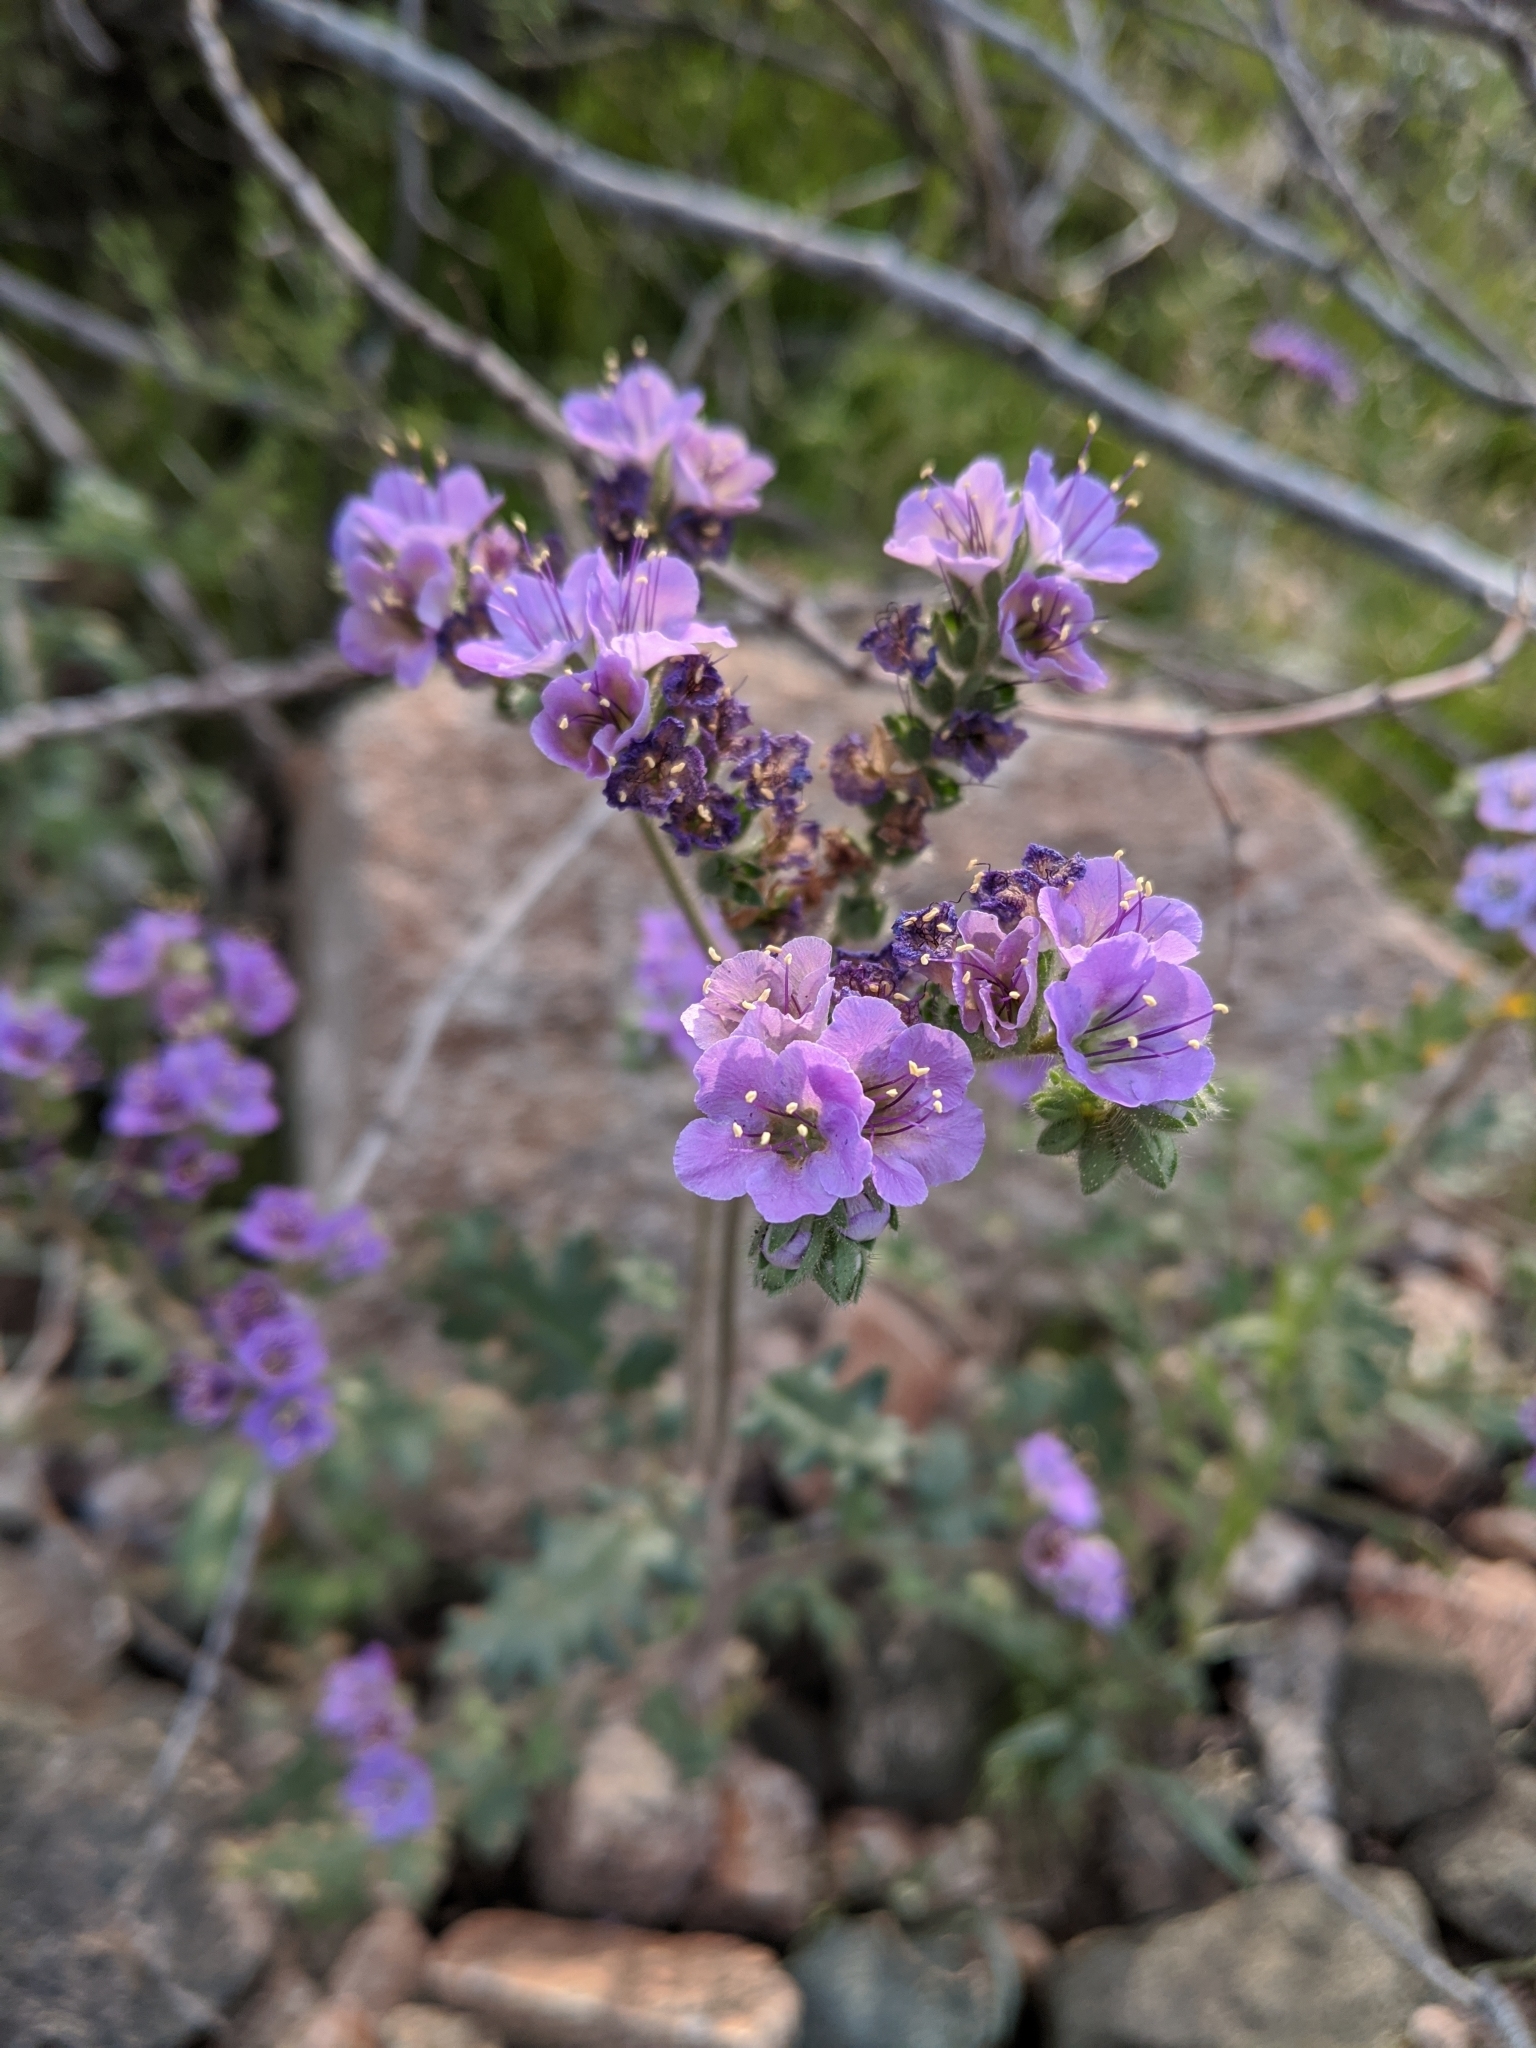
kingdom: Plantae
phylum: Tracheophyta
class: Magnoliopsida
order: Boraginales
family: Hydrophyllaceae
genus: Phacelia
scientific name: Phacelia crenulata
